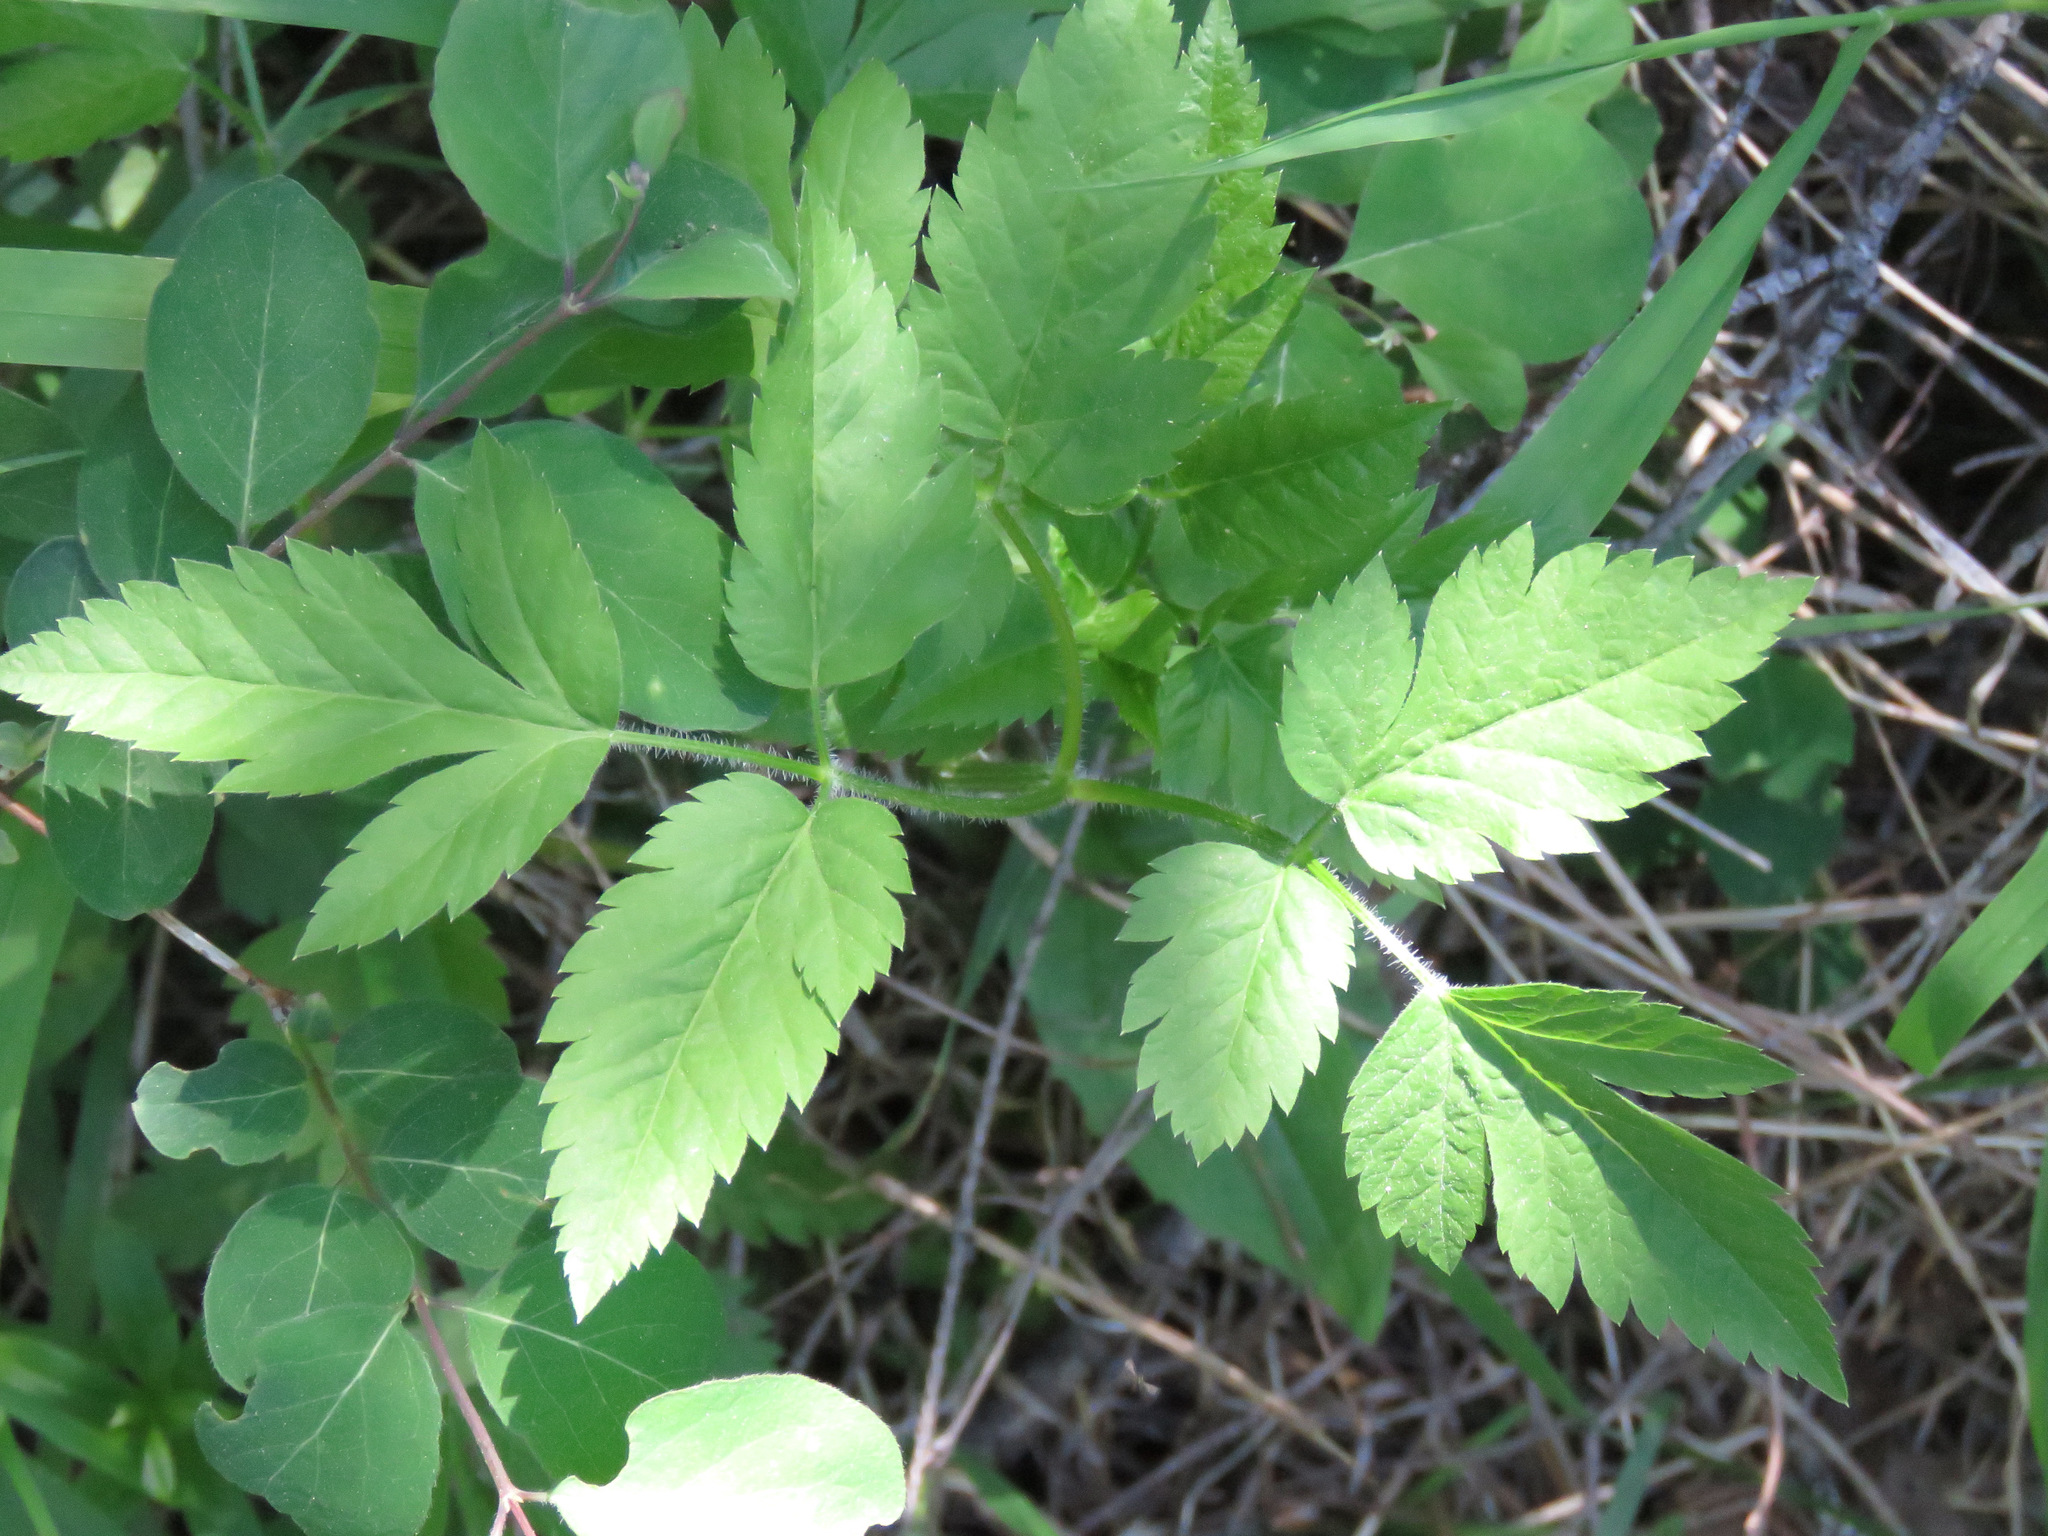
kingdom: Plantae
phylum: Tracheophyta
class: Magnoliopsida
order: Apiales
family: Apiaceae
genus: Osmorhiza
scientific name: Osmorhiza berteroi
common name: Mountain sweet cicely
